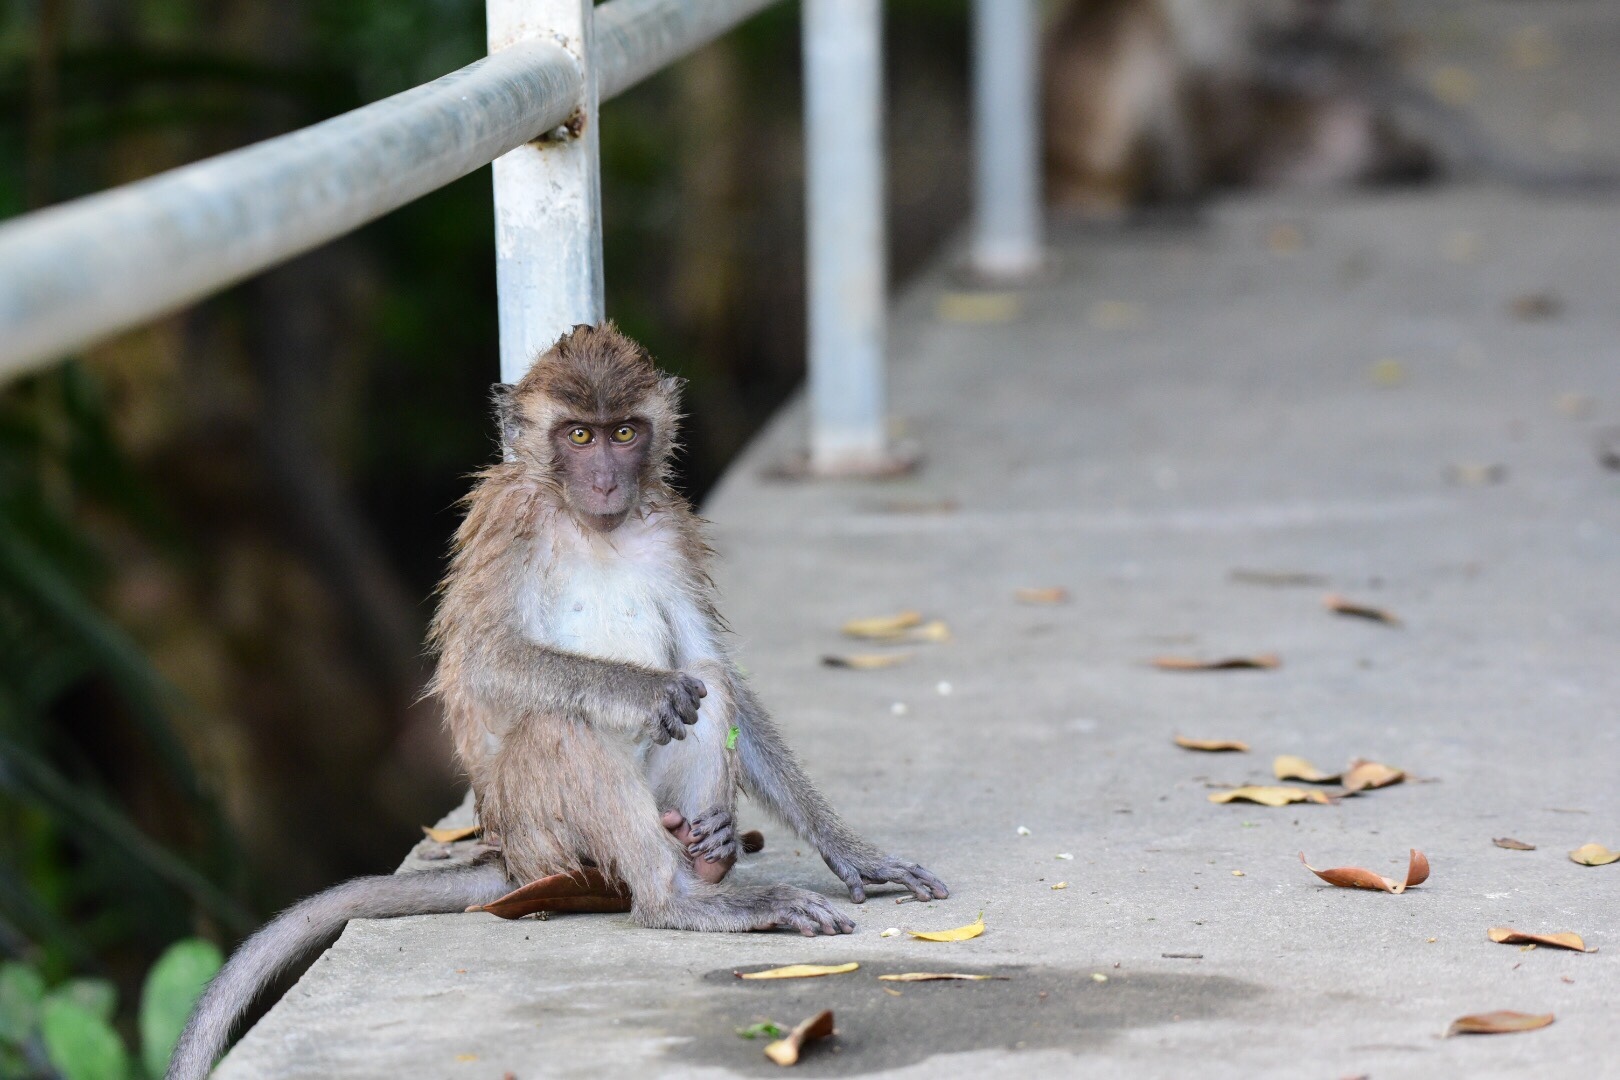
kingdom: Animalia
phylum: Chordata
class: Mammalia
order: Primates
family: Cercopithecidae
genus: Macaca
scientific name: Macaca fascicularis
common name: Crab-eating macaque
